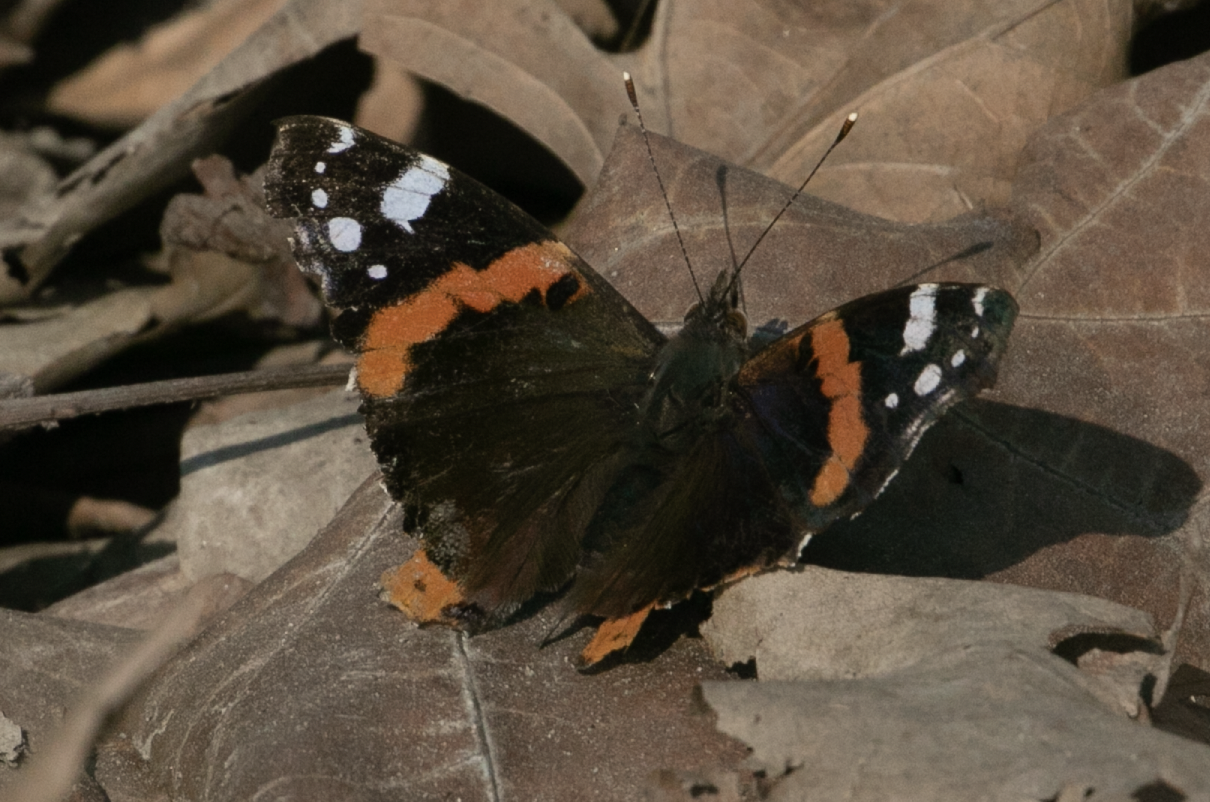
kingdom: Animalia
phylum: Arthropoda
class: Insecta
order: Lepidoptera
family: Nymphalidae
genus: Vanessa
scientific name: Vanessa atalanta
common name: Red admiral
